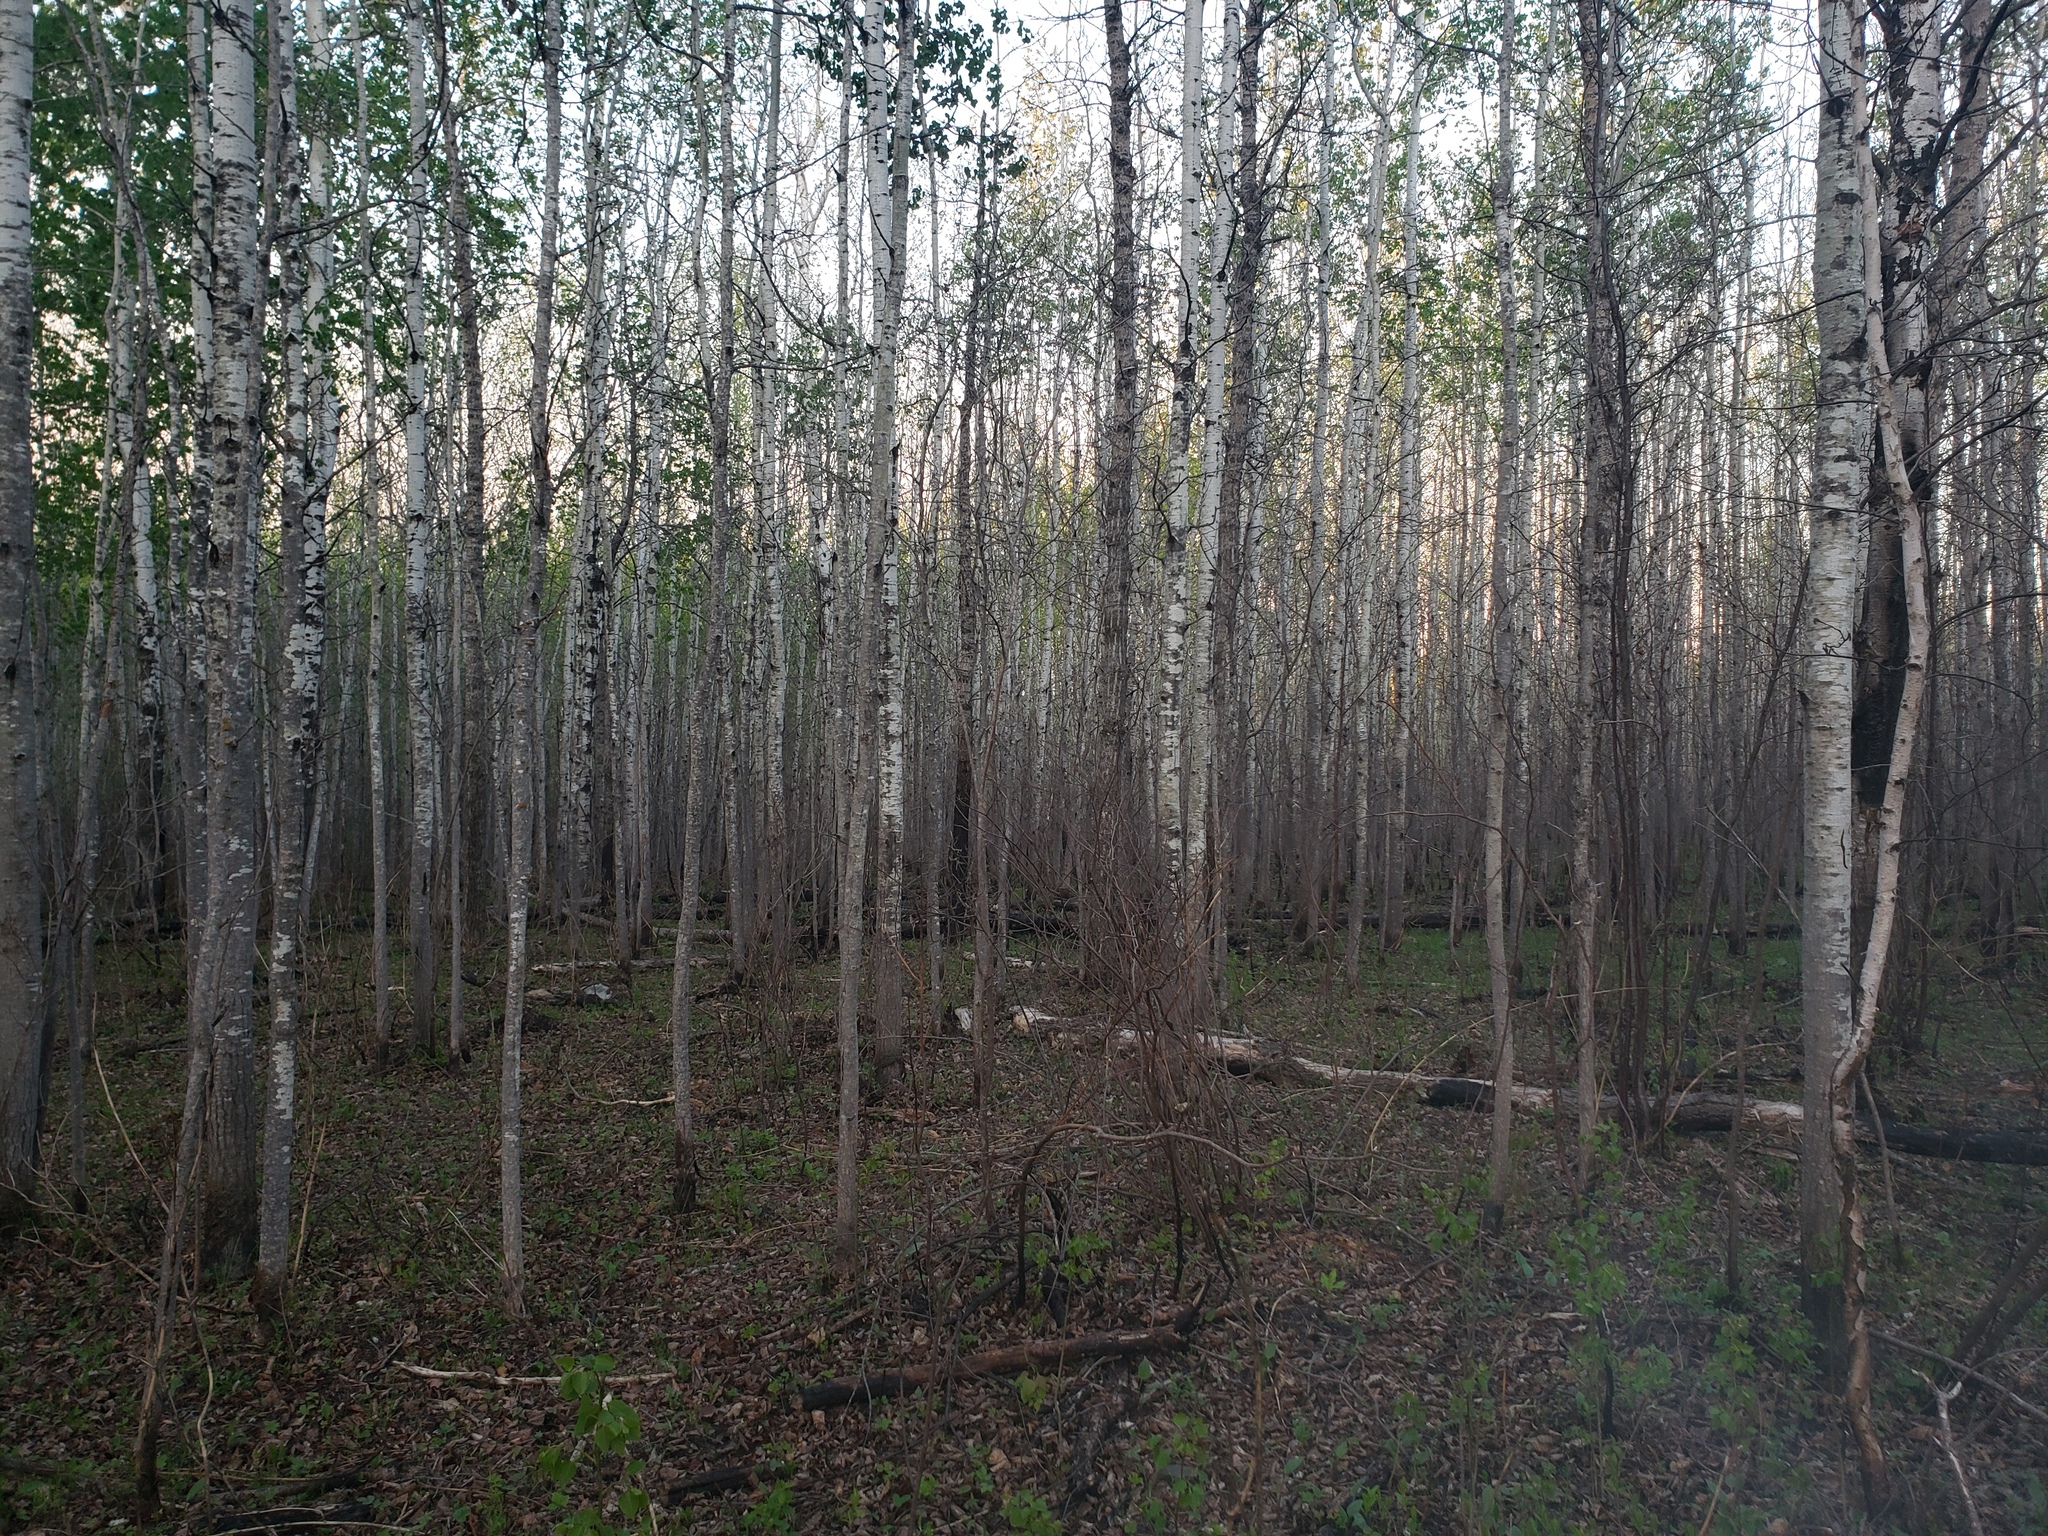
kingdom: Plantae
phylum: Tracheophyta
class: Magnoliopsida
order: Malpighiales
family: Salicaceae
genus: Populus
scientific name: Populus tremuloides
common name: Quaking aspen
